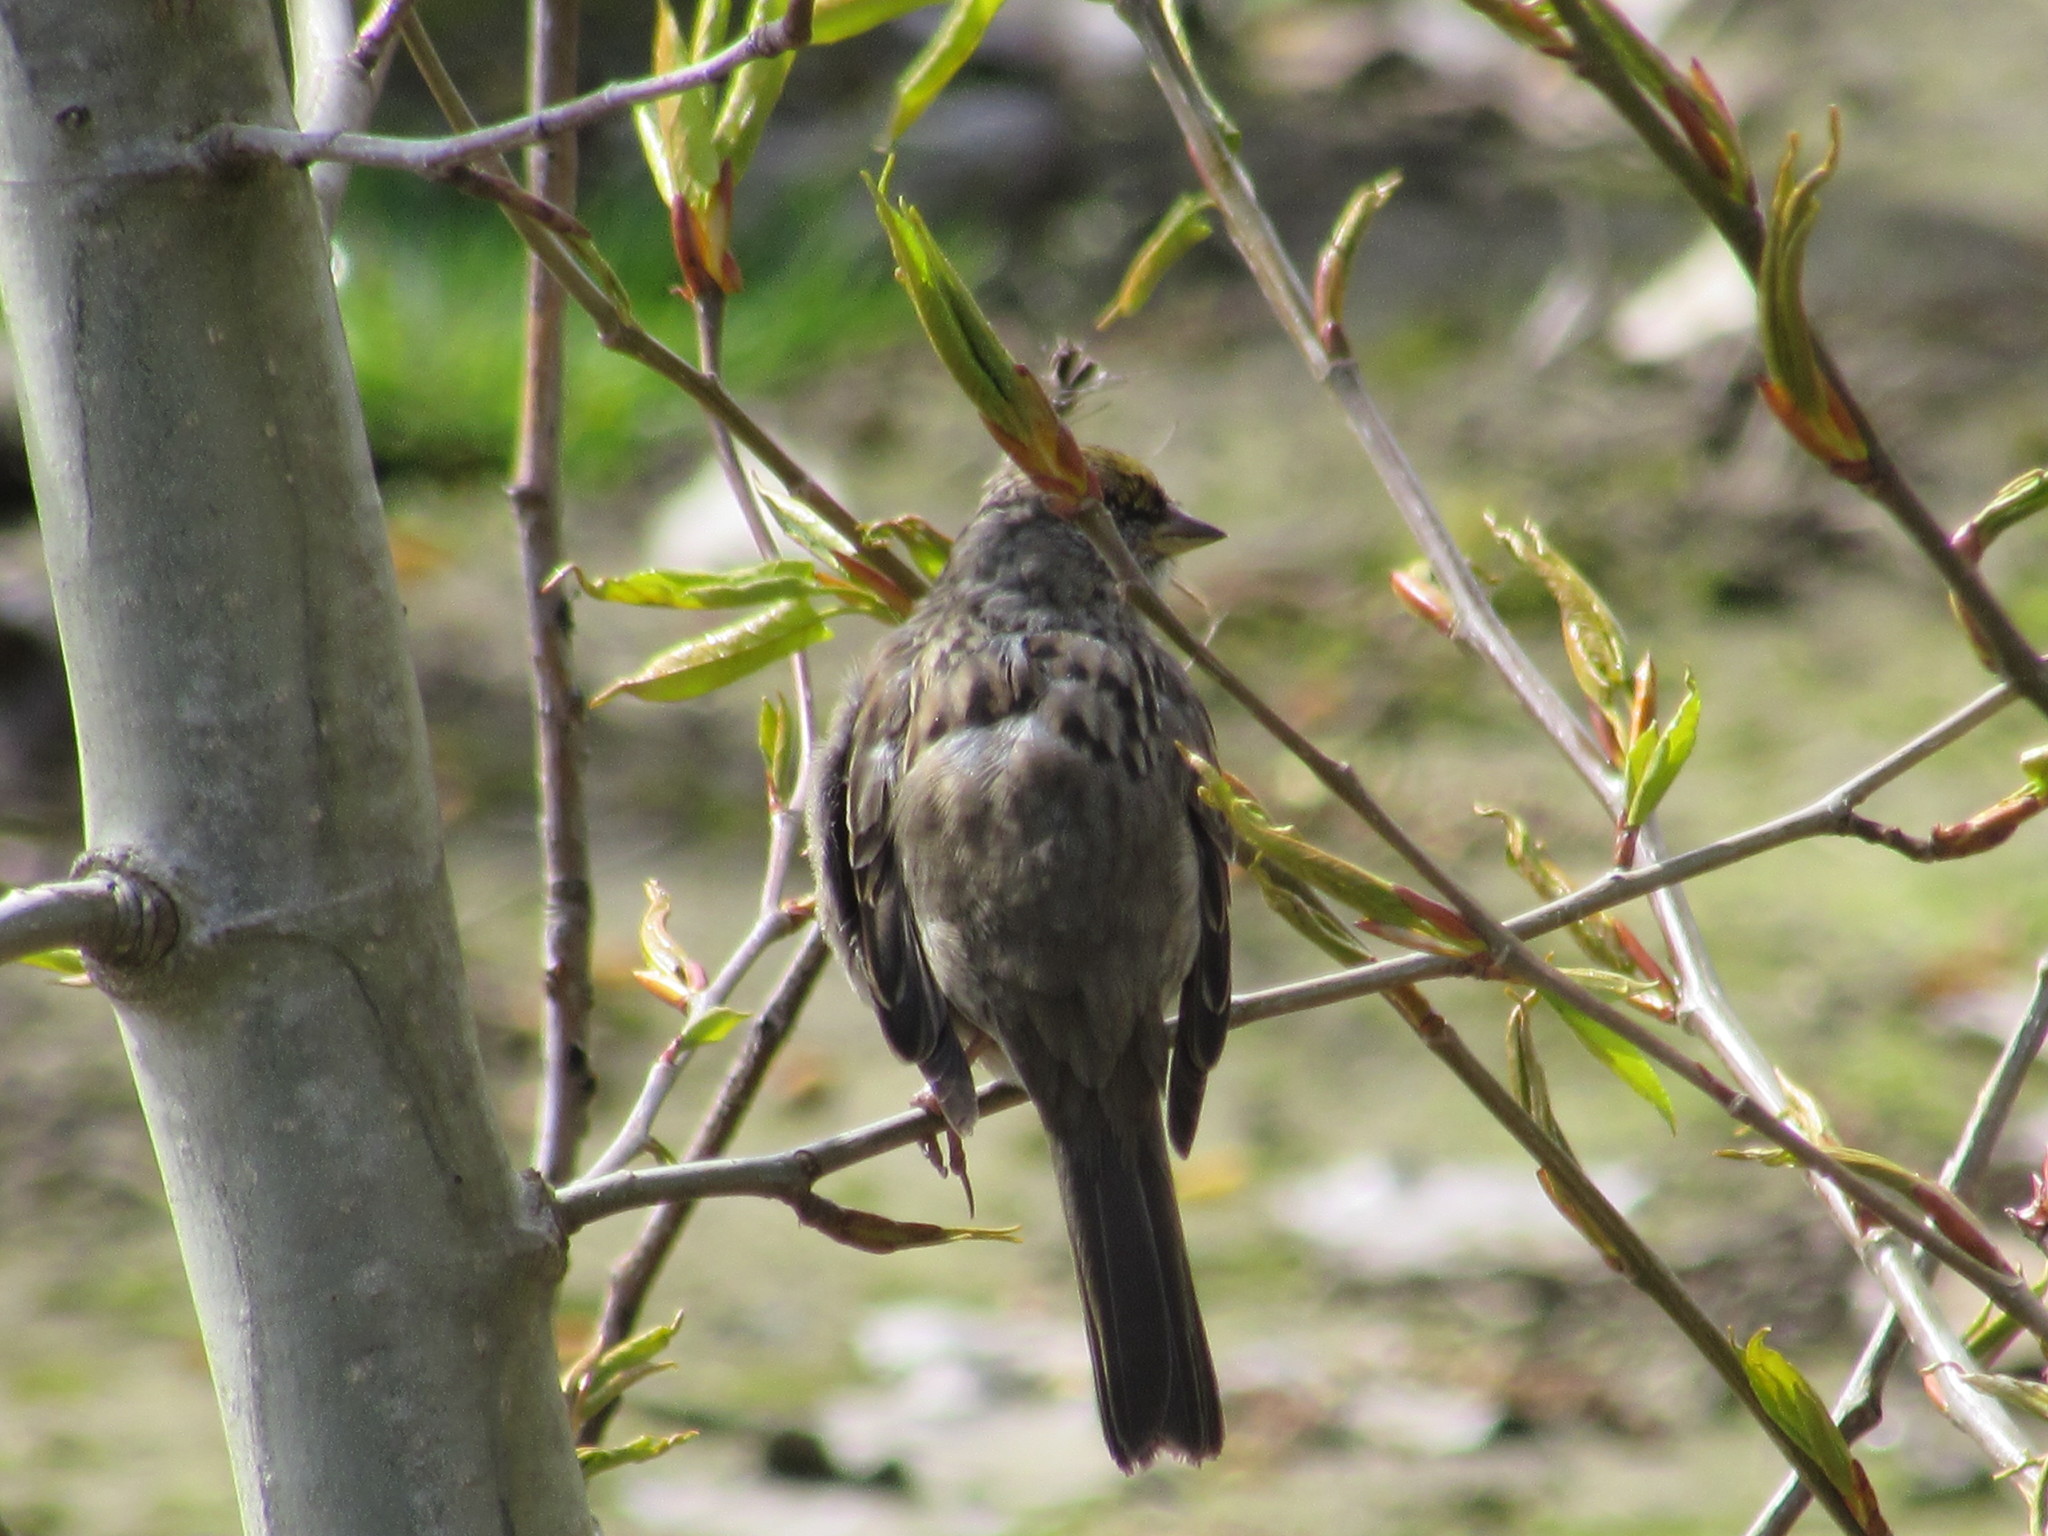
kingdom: Animalia
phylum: Chordata
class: Aves
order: Passeriformes
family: Passerellidae
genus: Zonotrichia
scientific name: Zonotrichia atricapilla
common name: Golden-crowned sparrow
